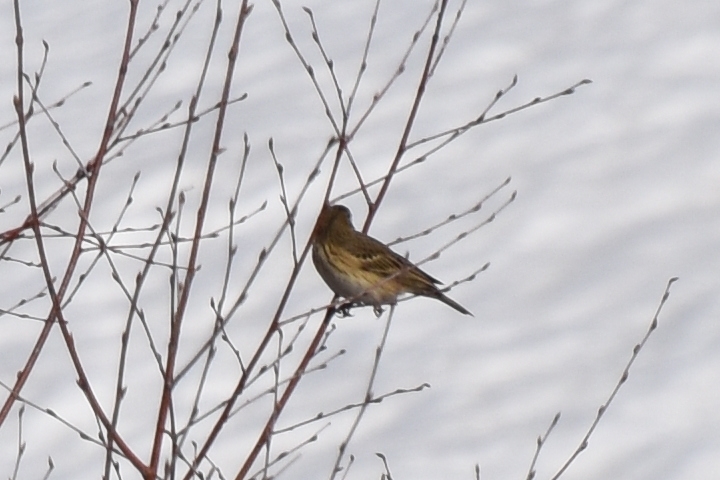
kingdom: Animalia
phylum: Chordata
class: Aves
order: Passeriformes
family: Motacillidae
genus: Anthus
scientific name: Anthus trivialis
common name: Tree pipit
